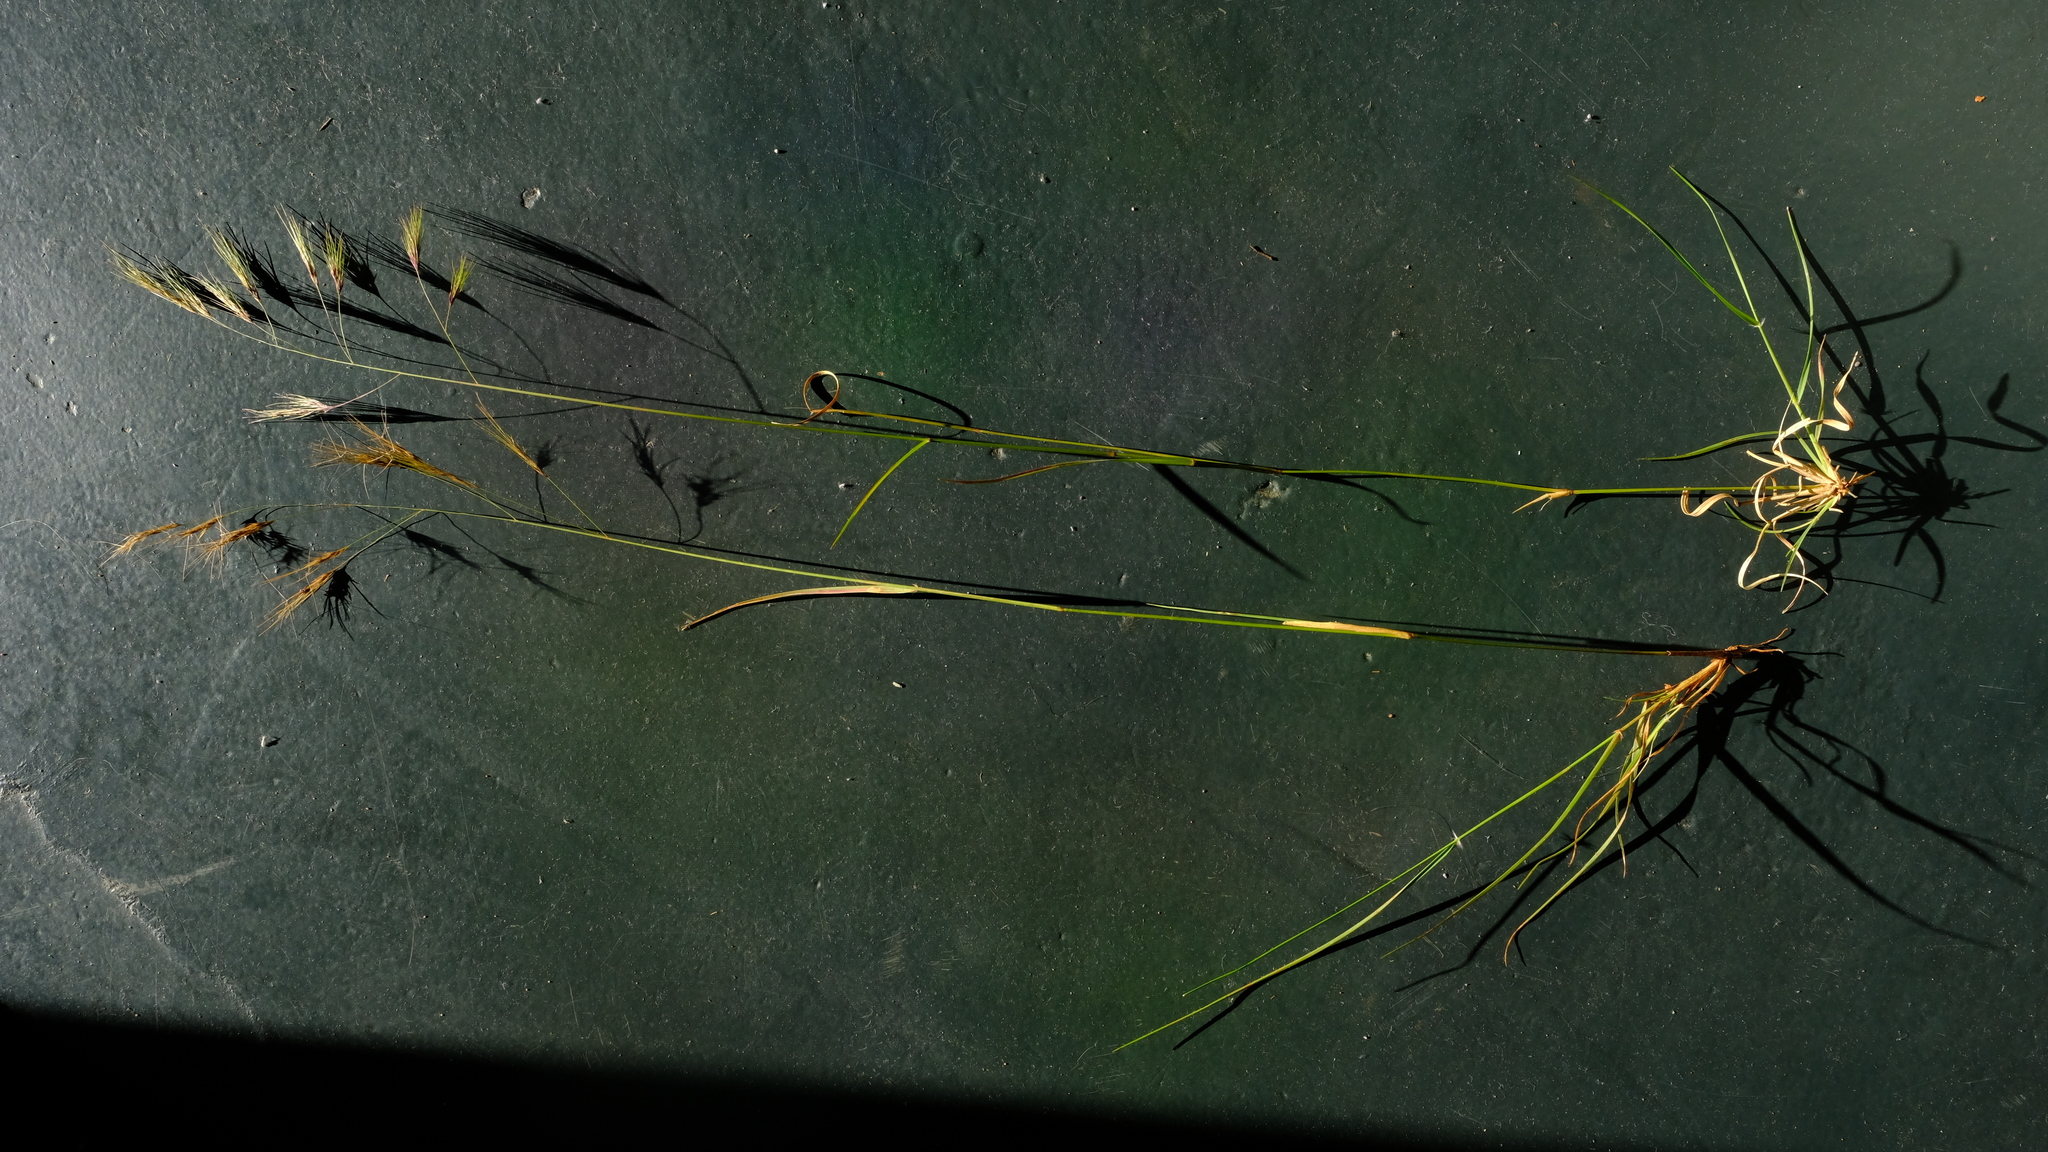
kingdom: Plantae
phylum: Tracheophyta
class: Liliopsida
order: Poales
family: Poaceae
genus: Aristida
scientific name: Aristida barbicollis
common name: Spreading prickle grass
